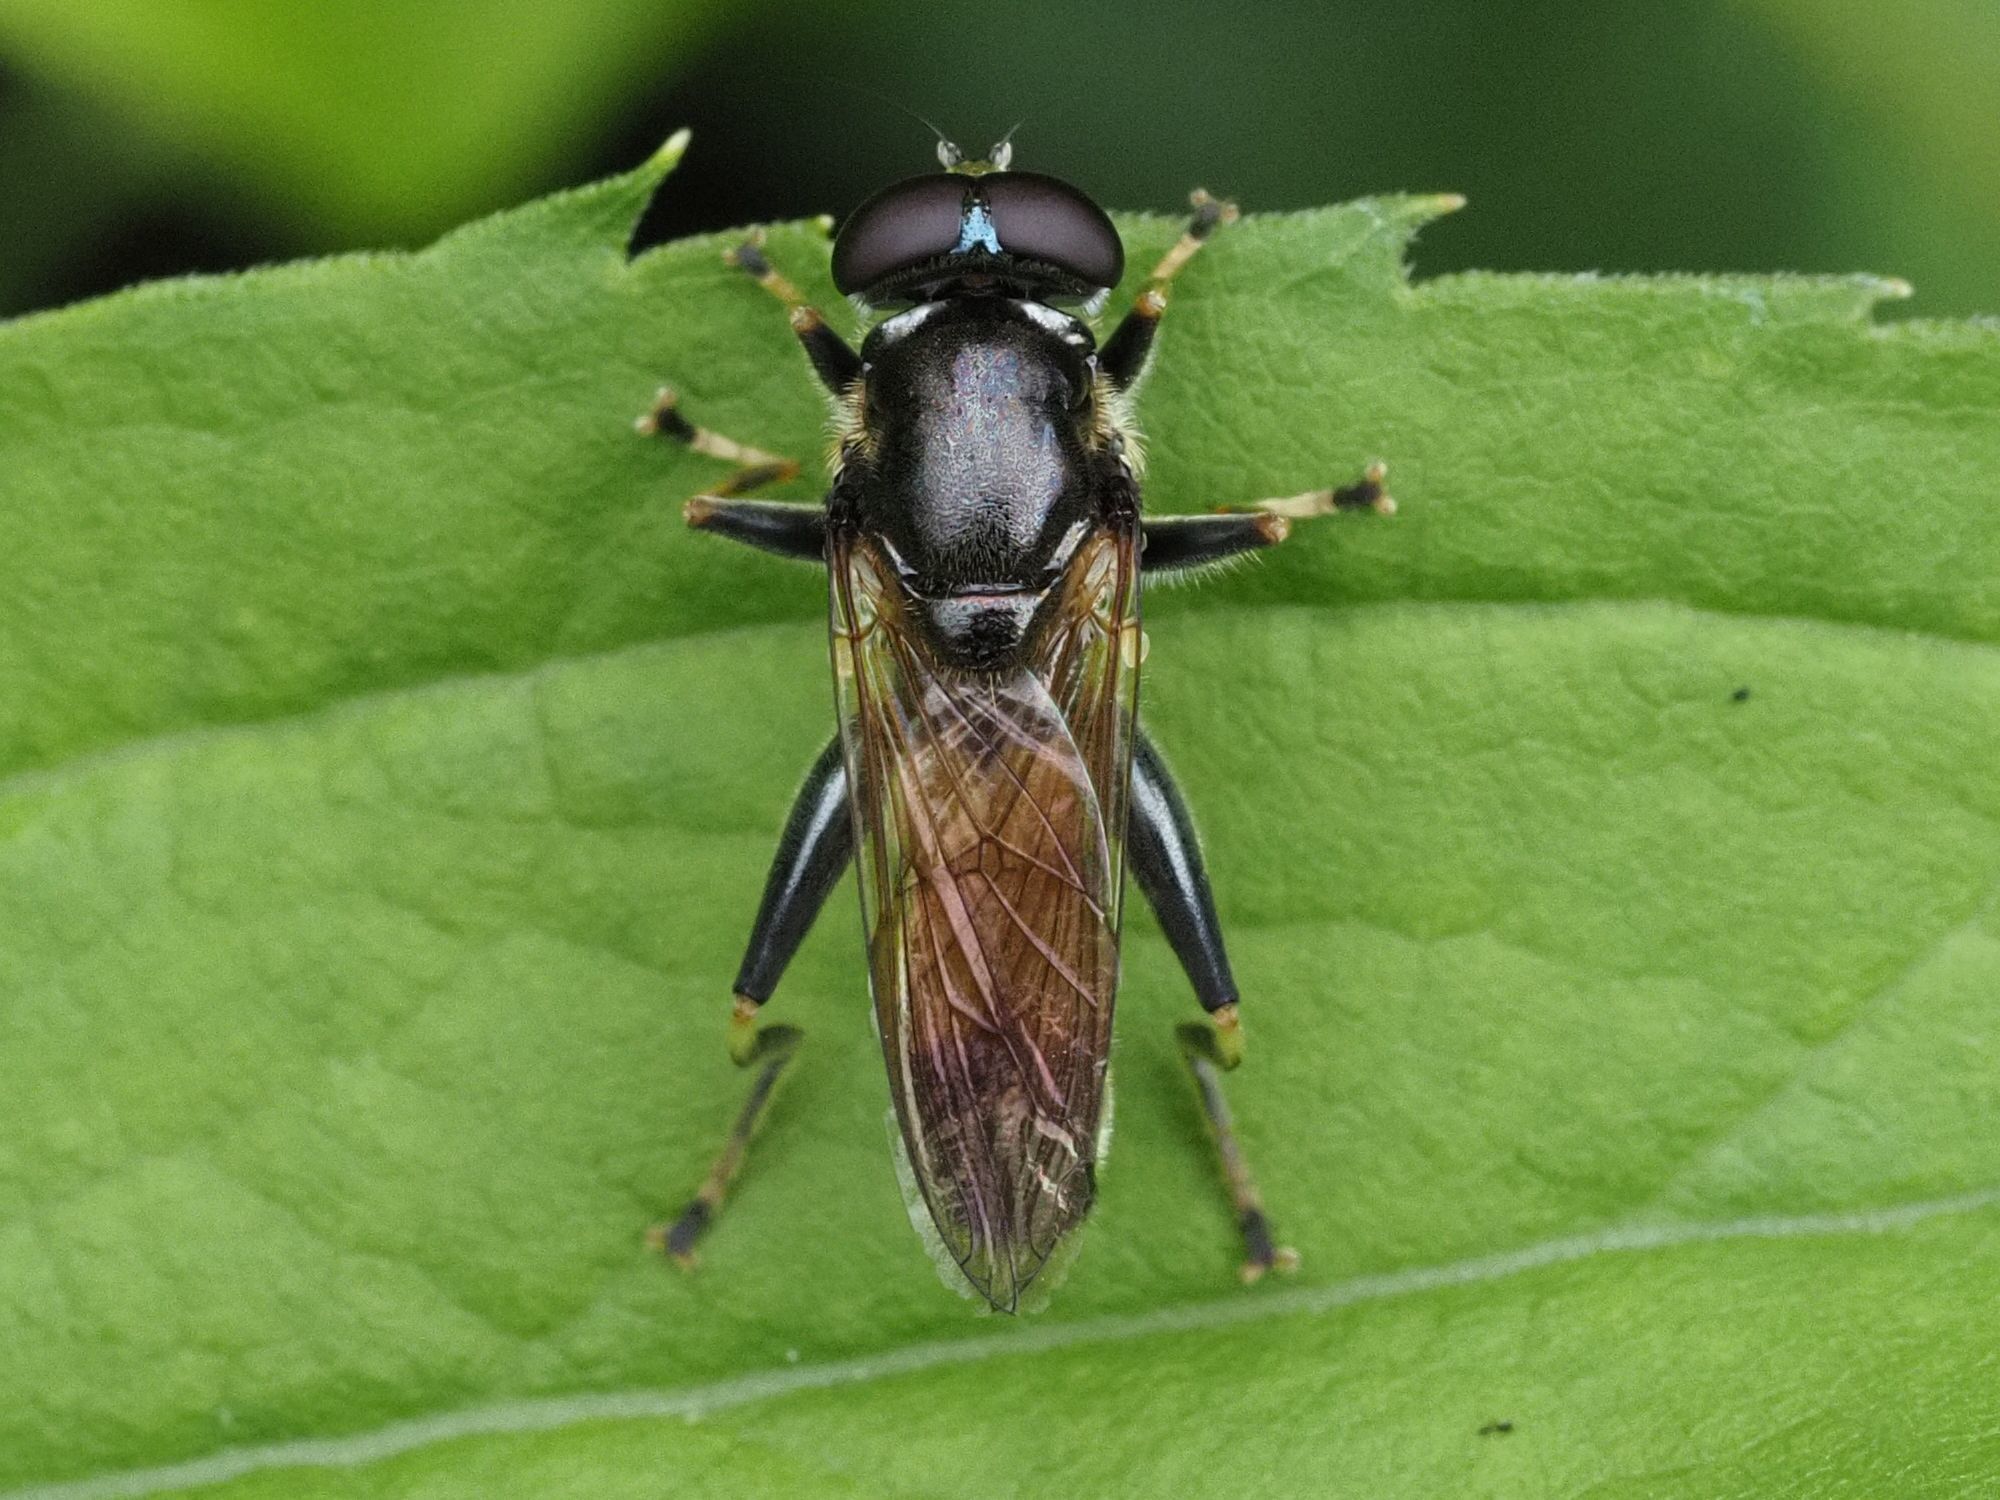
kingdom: Animalia
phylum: Arthropoda
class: Insecta
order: Diptera
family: Syrphidae
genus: Xylota
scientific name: Xylota segnis
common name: Brown-toed forest fly
